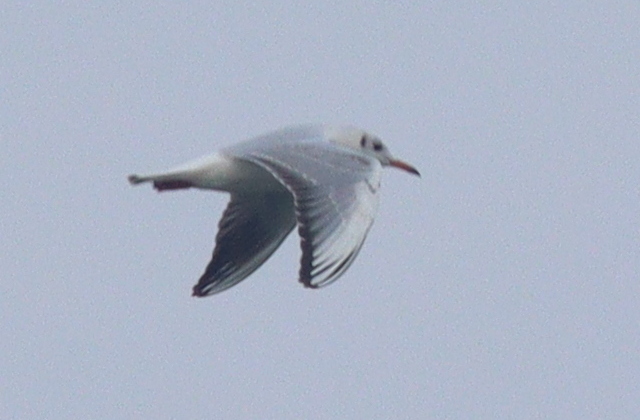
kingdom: Animalia
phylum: Chordata
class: Aves
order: Charadriiformes
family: Laridae
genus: Chroicocephalus
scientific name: Chroicocephalus ridibundus
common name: Black-headed gull
